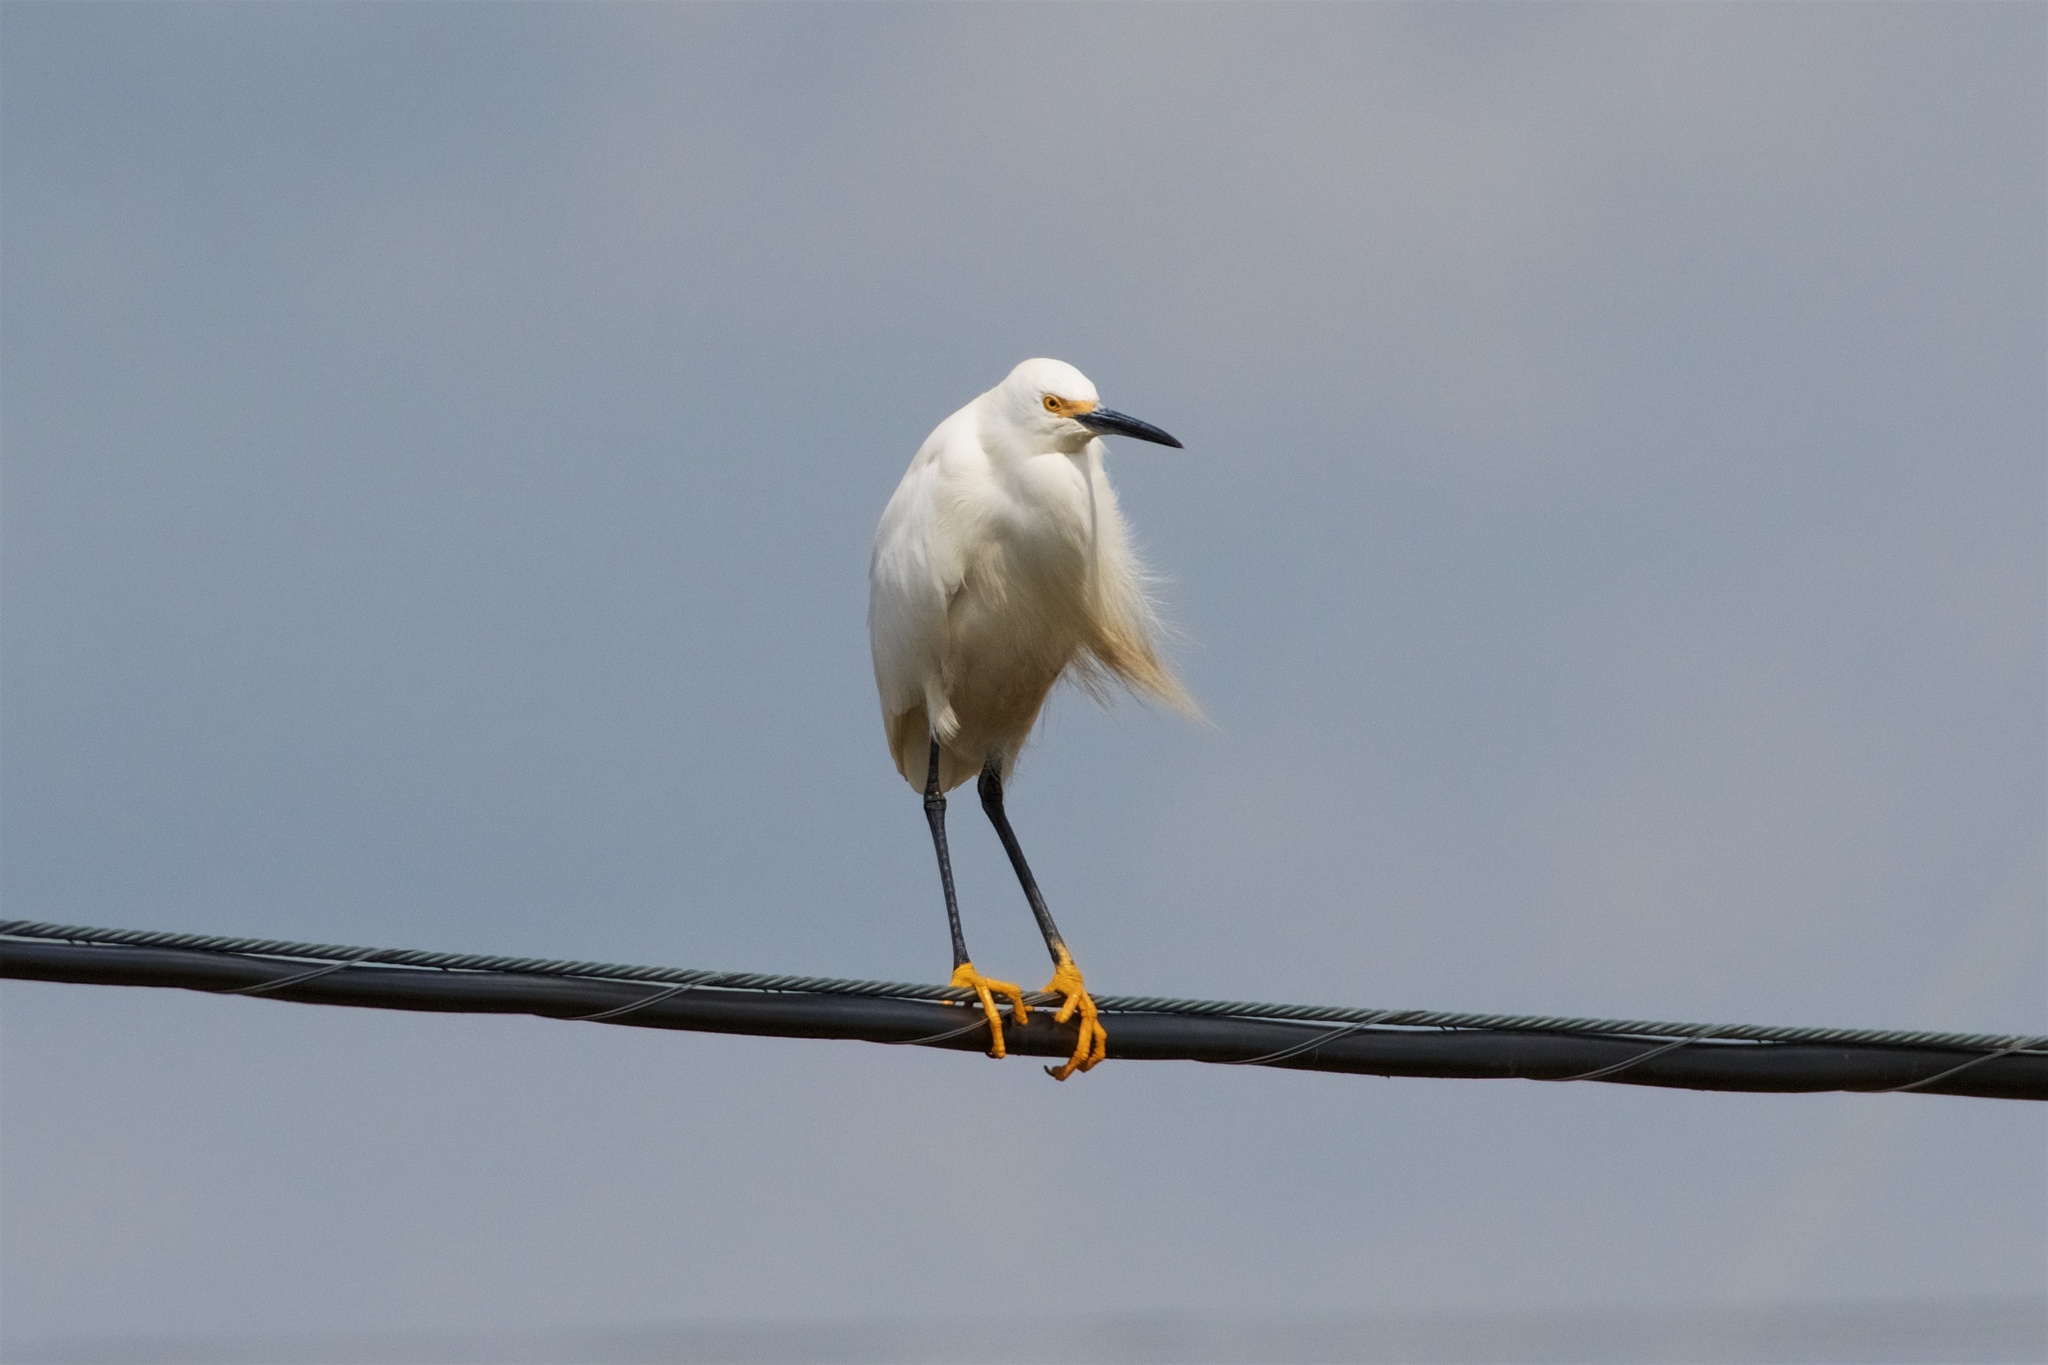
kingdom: Animalia
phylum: Chordata
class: Aves
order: Pelecaniformes
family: Ardeidae
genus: Egretta
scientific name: Egretta thula
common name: Snowy egret
